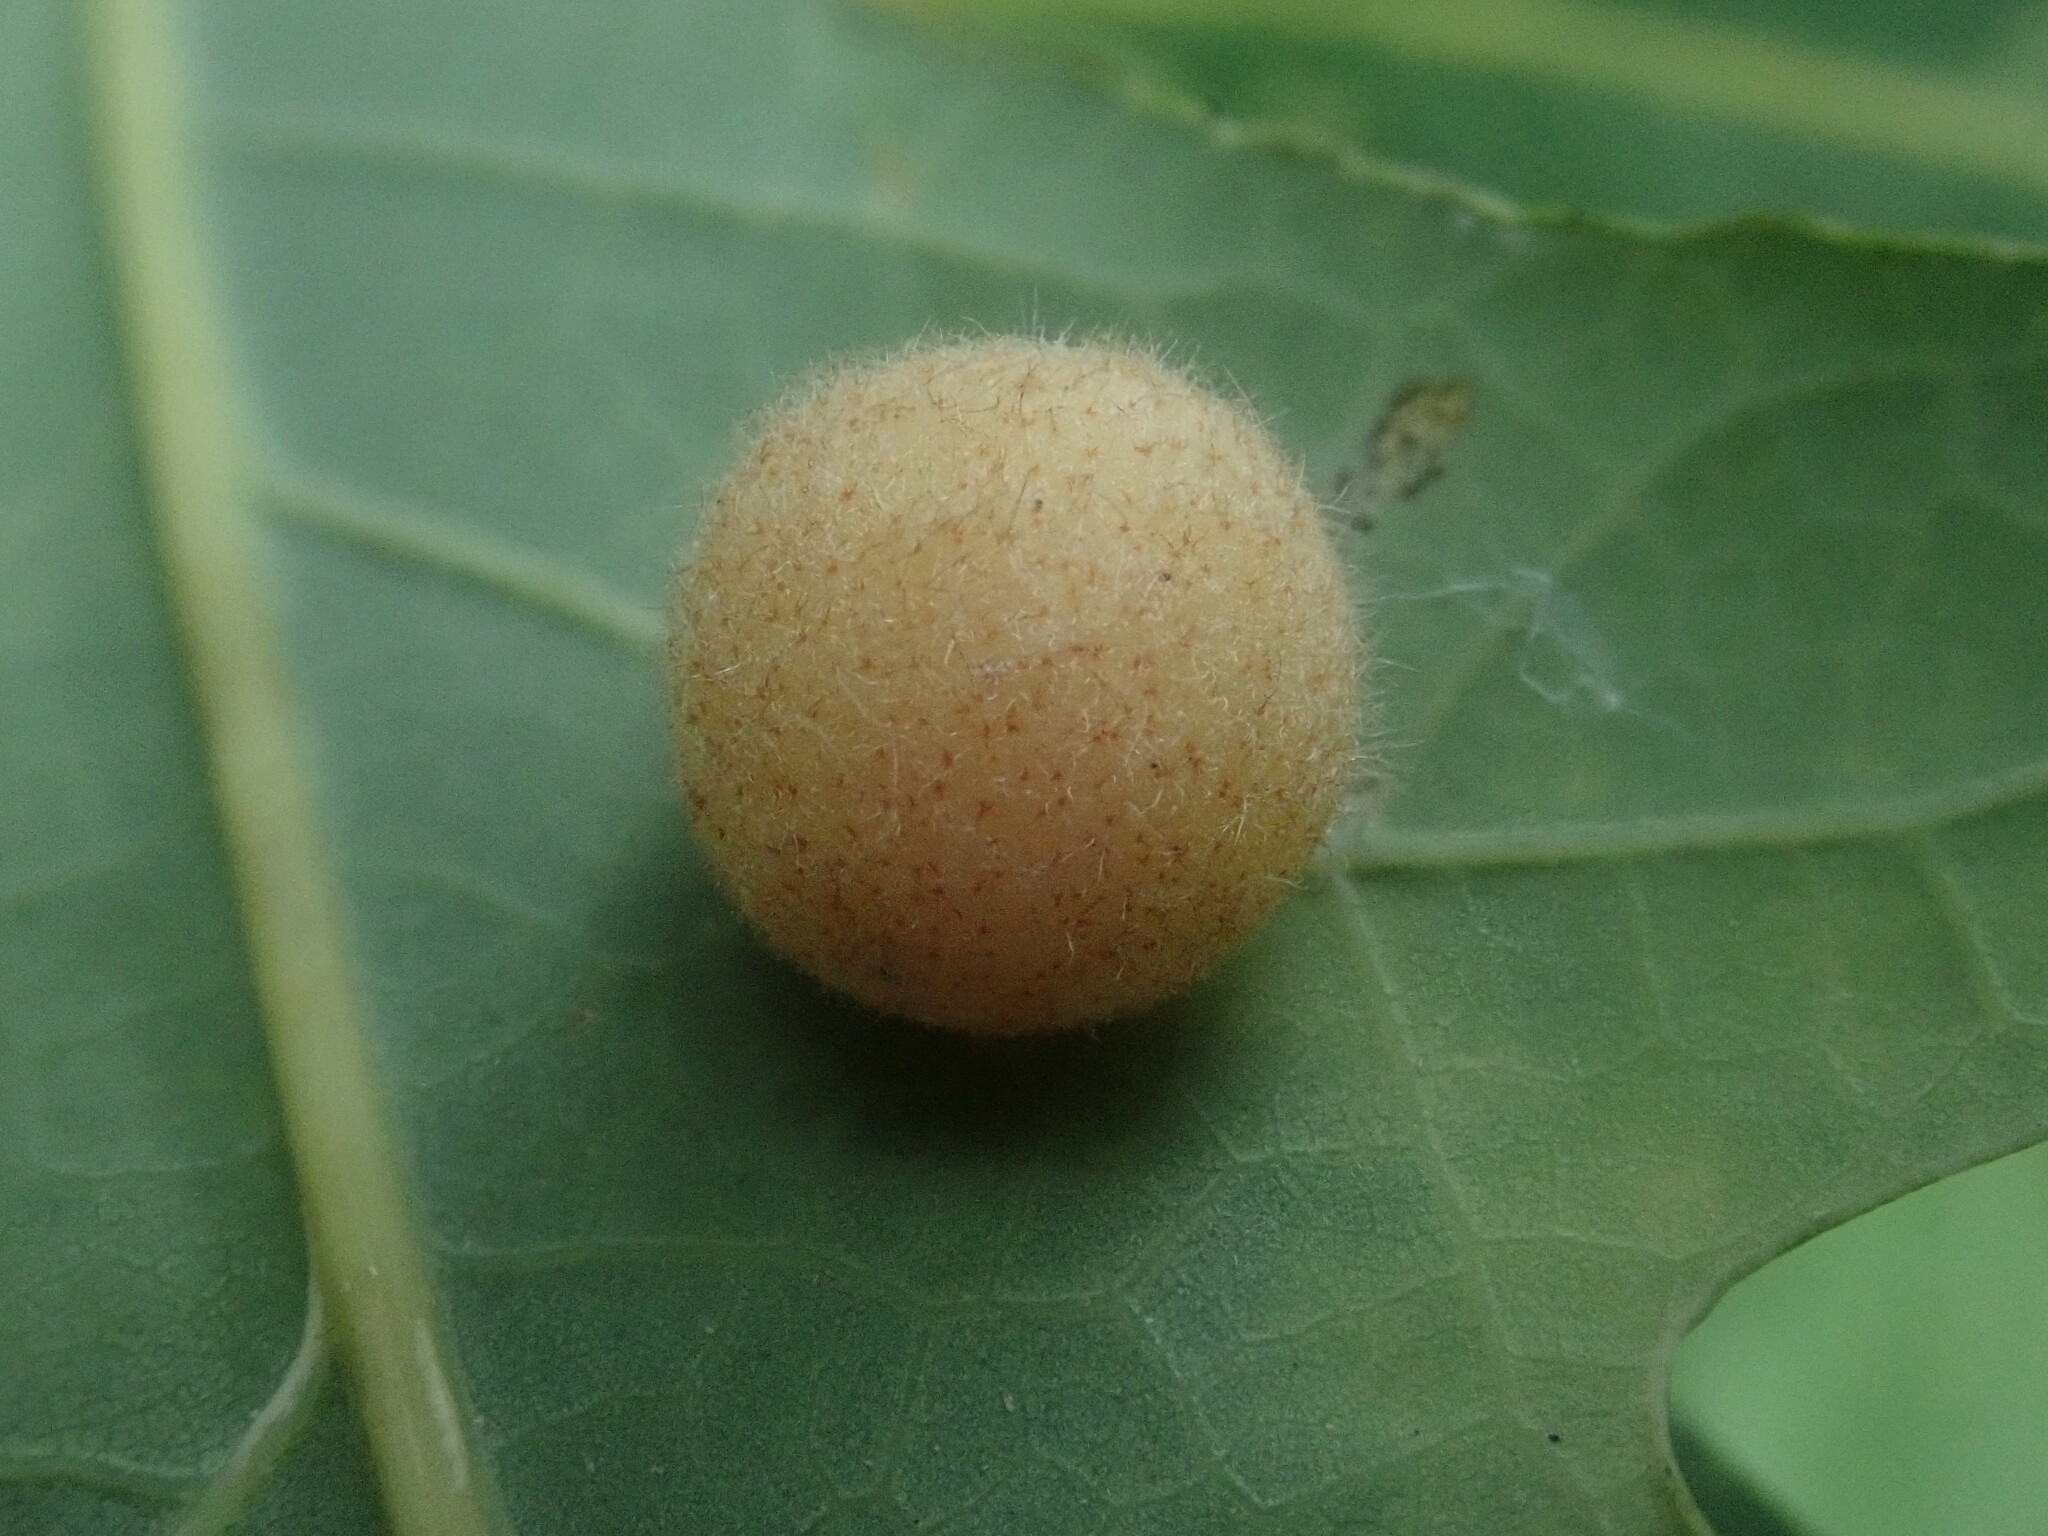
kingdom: Animalia
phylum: Arthropoda
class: Insecta
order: Hymenoptera
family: Cynipidae
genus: Philonix
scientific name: Philonix fulvicollis
